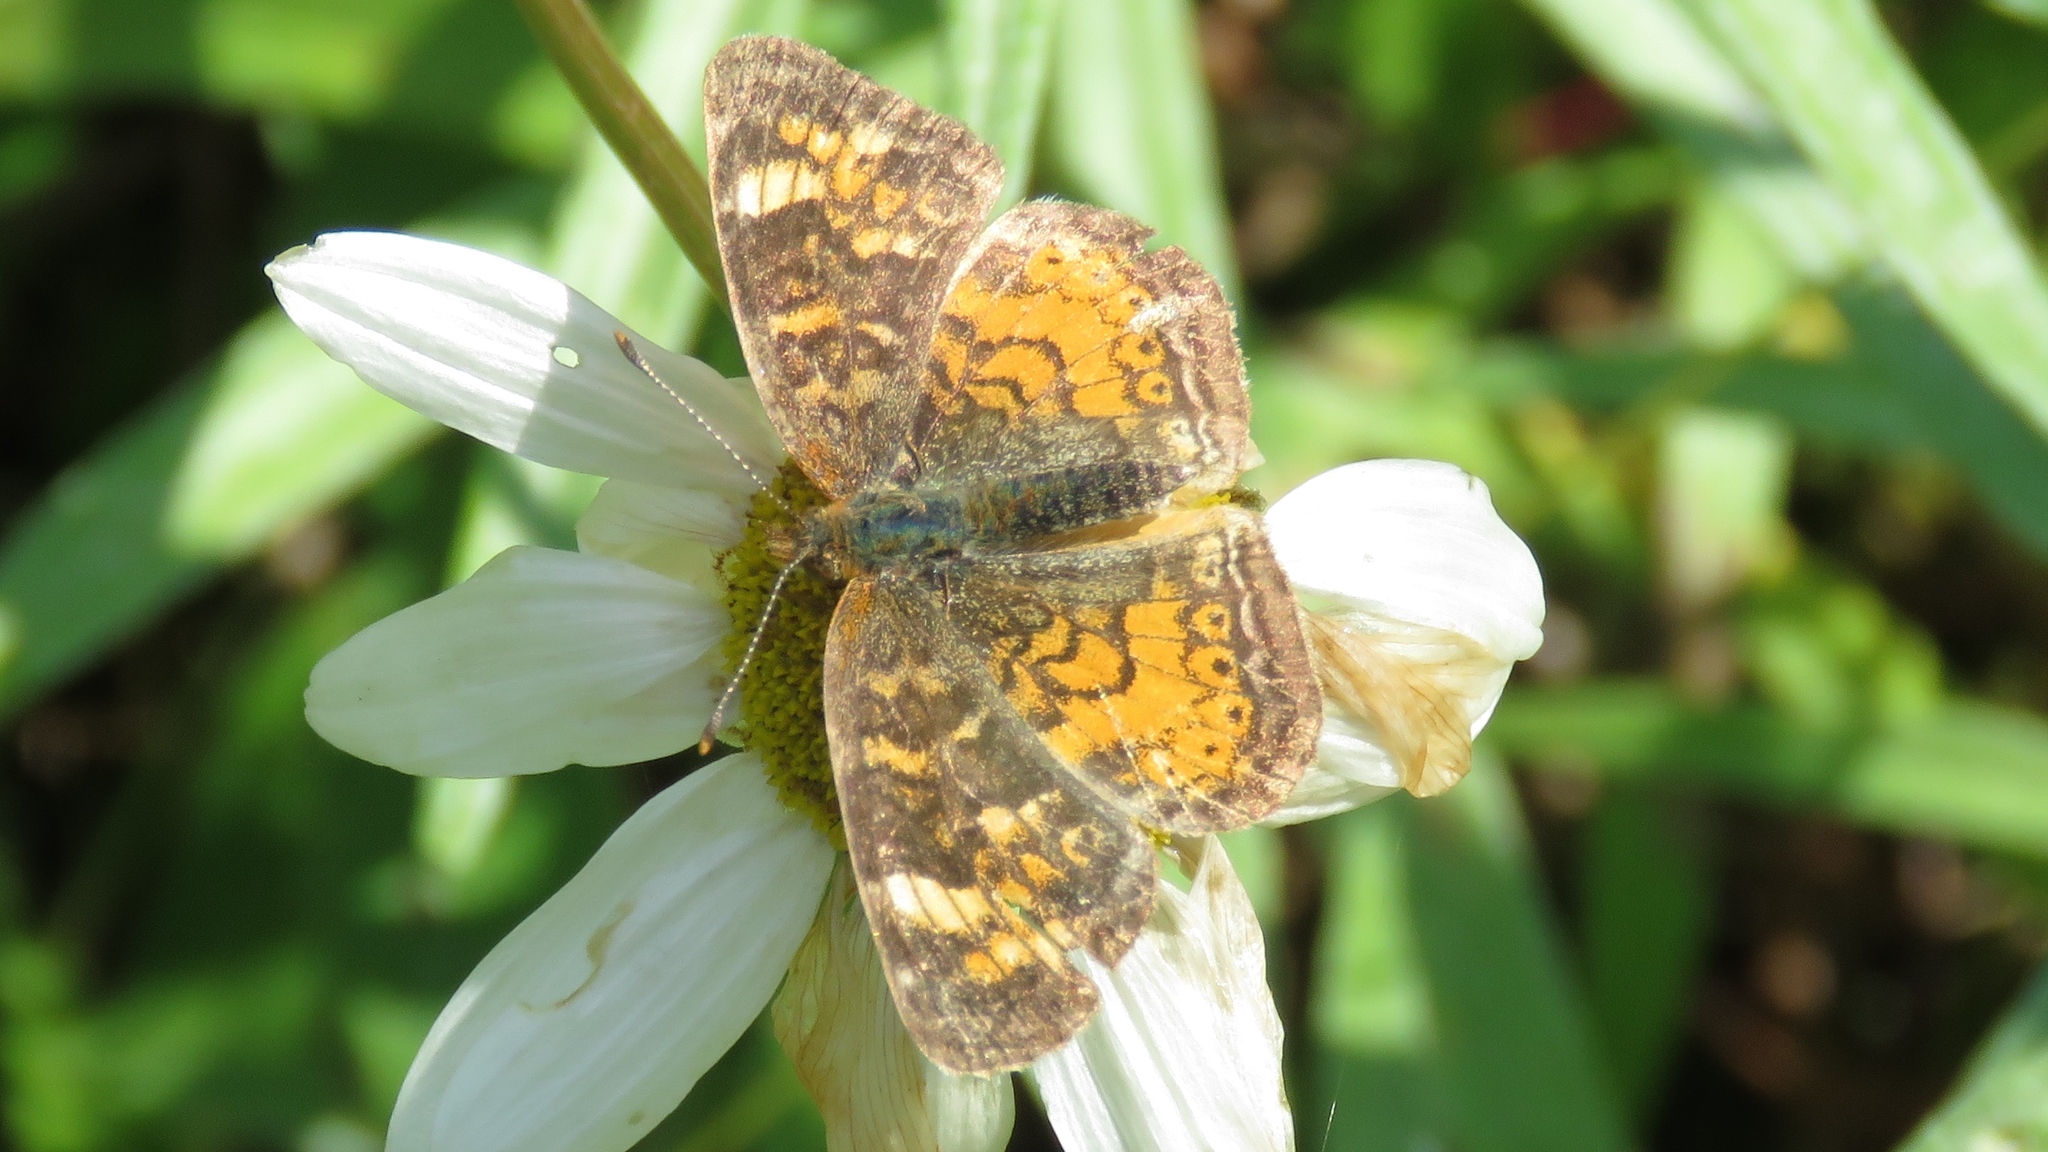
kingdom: Animalia
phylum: Arthropoda
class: Insecta
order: Lepidoptera
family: Nymphalidae
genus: Phyciodes
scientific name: Phyciodes tharos
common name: Pearl crescent
